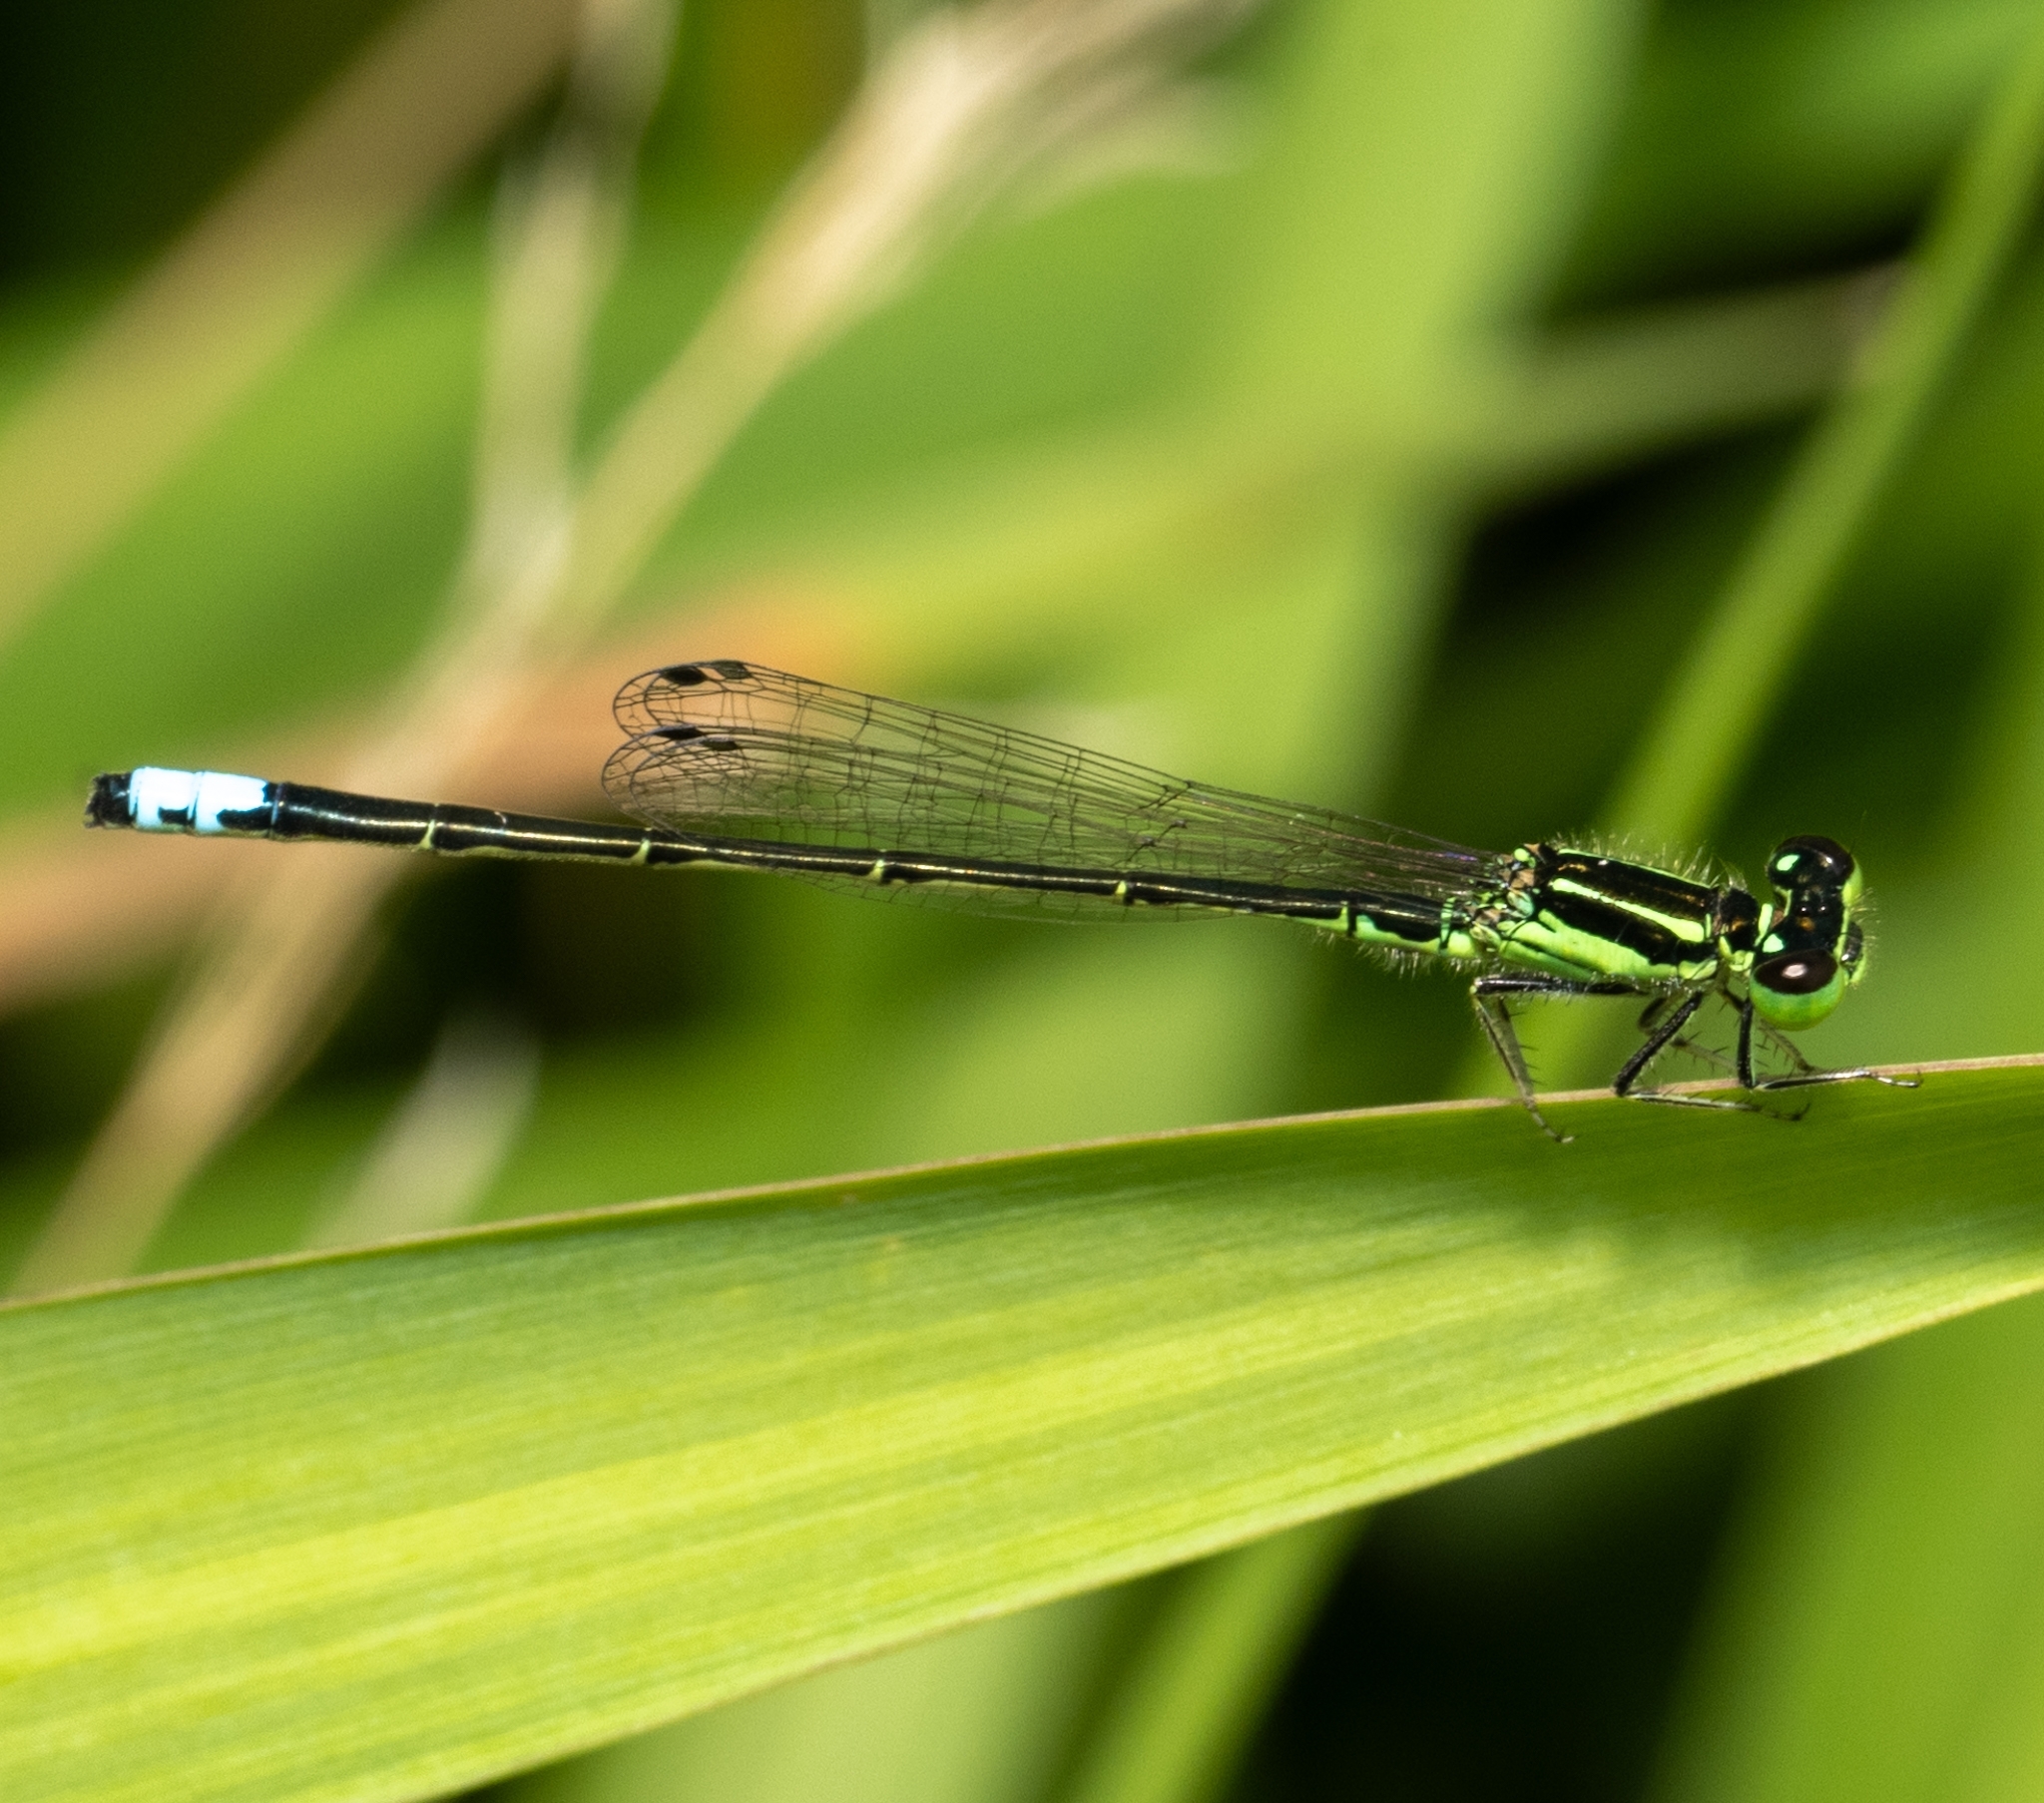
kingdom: Animalia
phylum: Arthropoda
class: Insecta
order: Odonata
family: Coenagrionidae
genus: Ischnura
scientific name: Ischnura verticalis
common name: Eastern forktail
